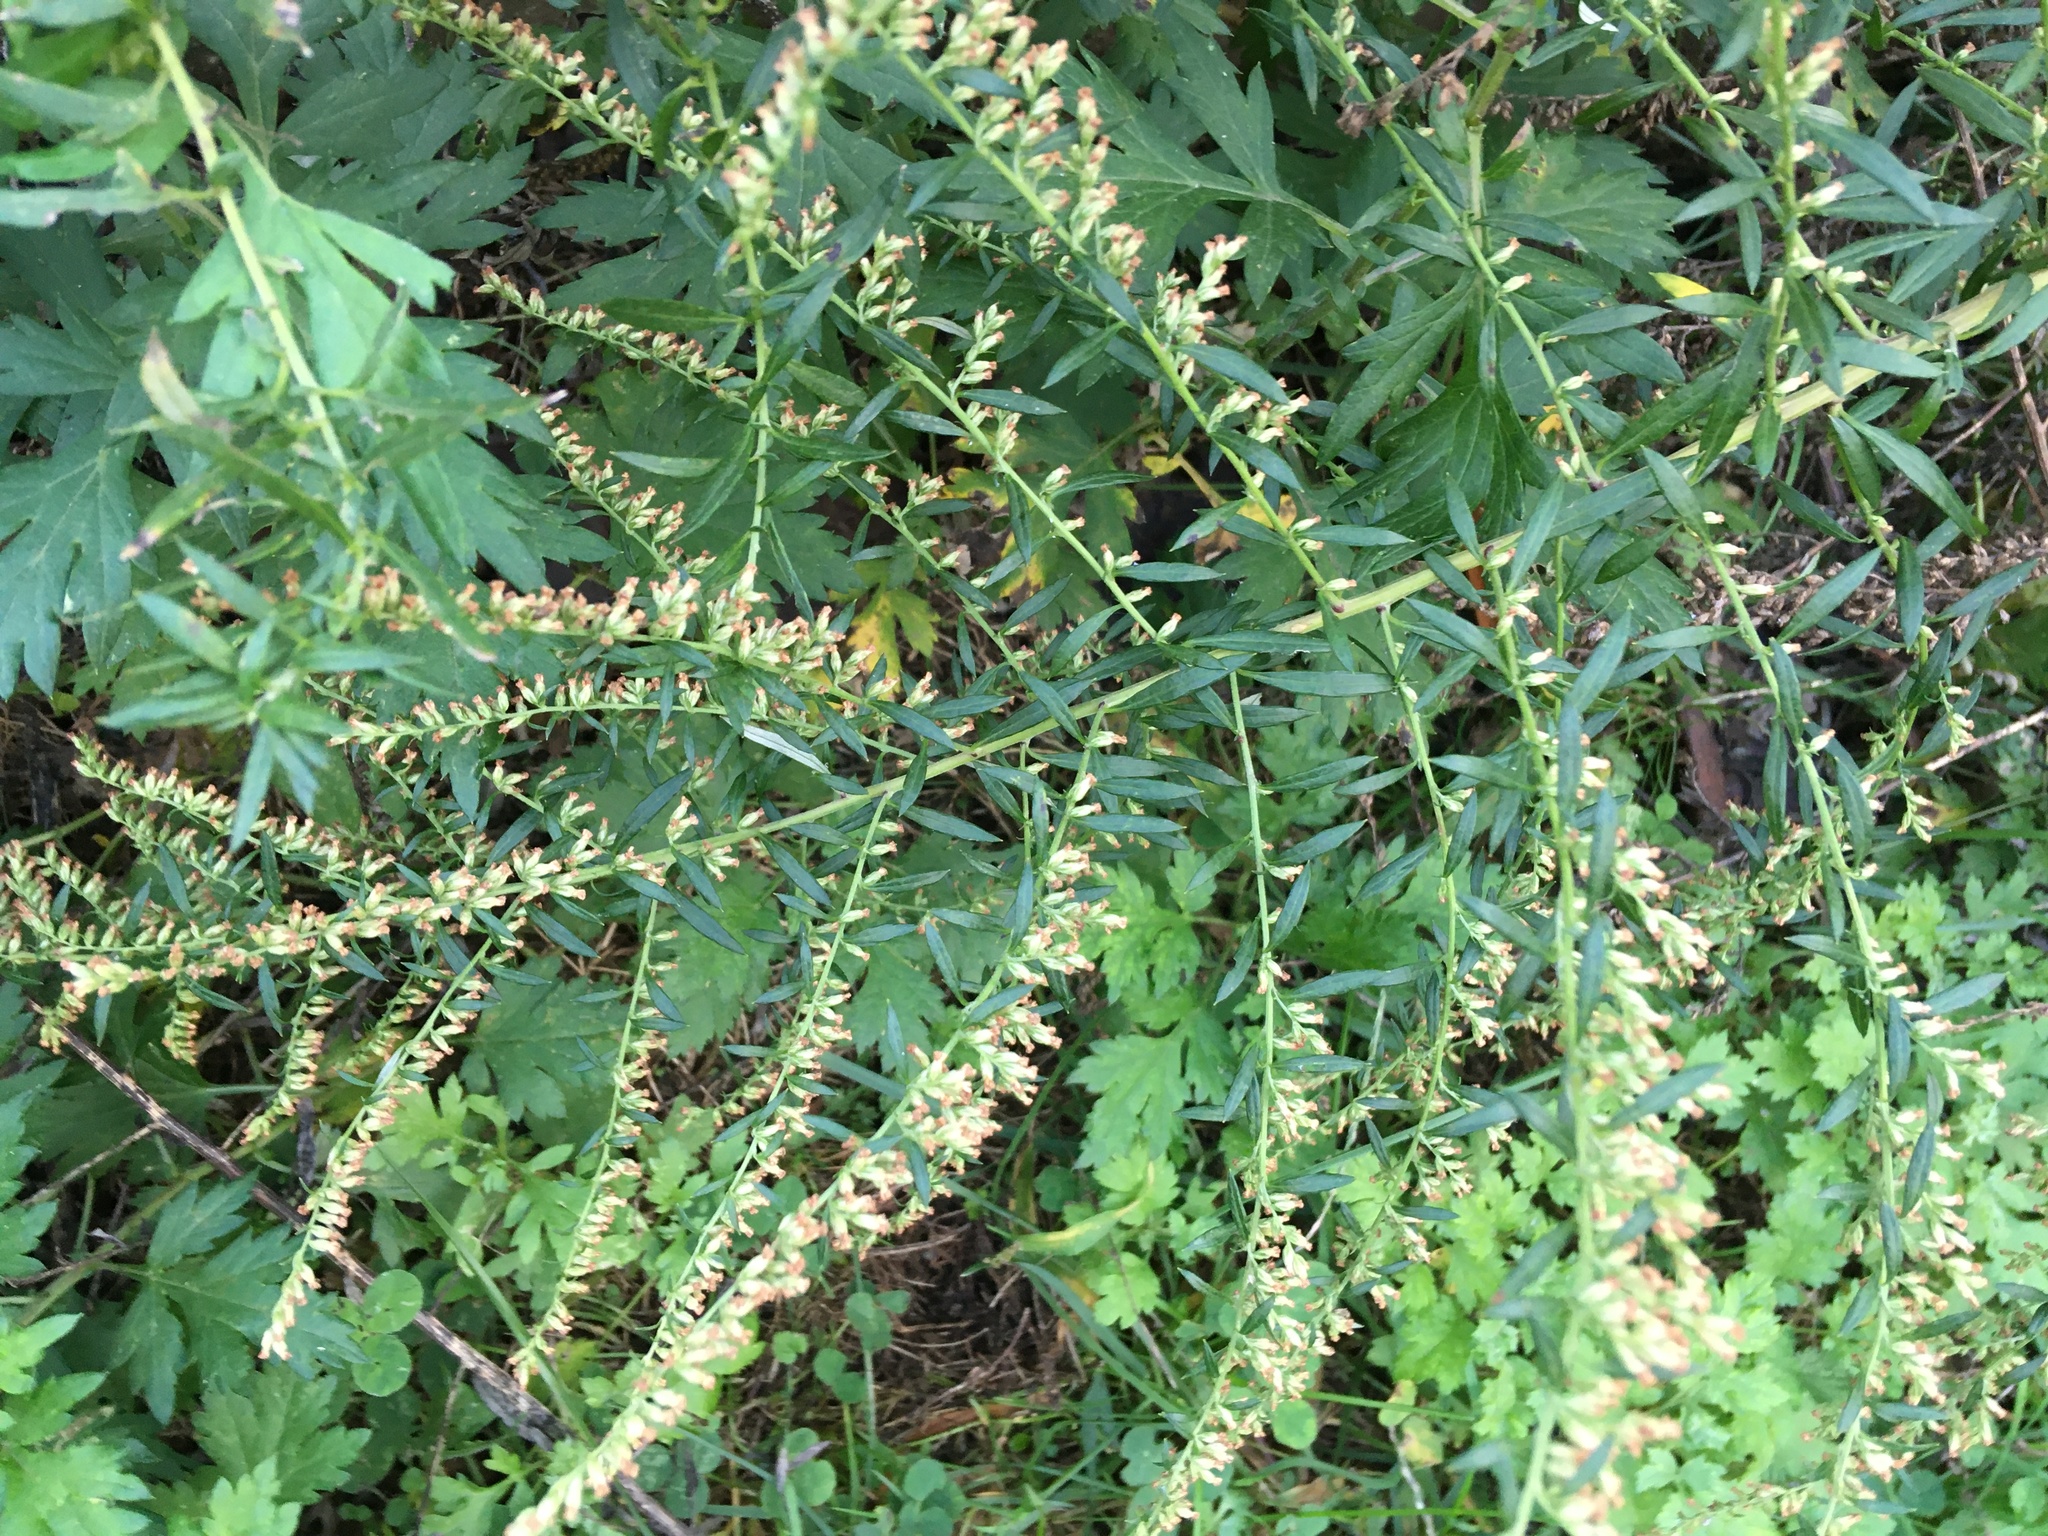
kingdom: Plantae
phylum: Tracheophyta
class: Magnoliopsida
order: Asterales
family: Asteraceae
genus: Artemisia
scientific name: Artemisia vulgaris
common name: Mugwort
